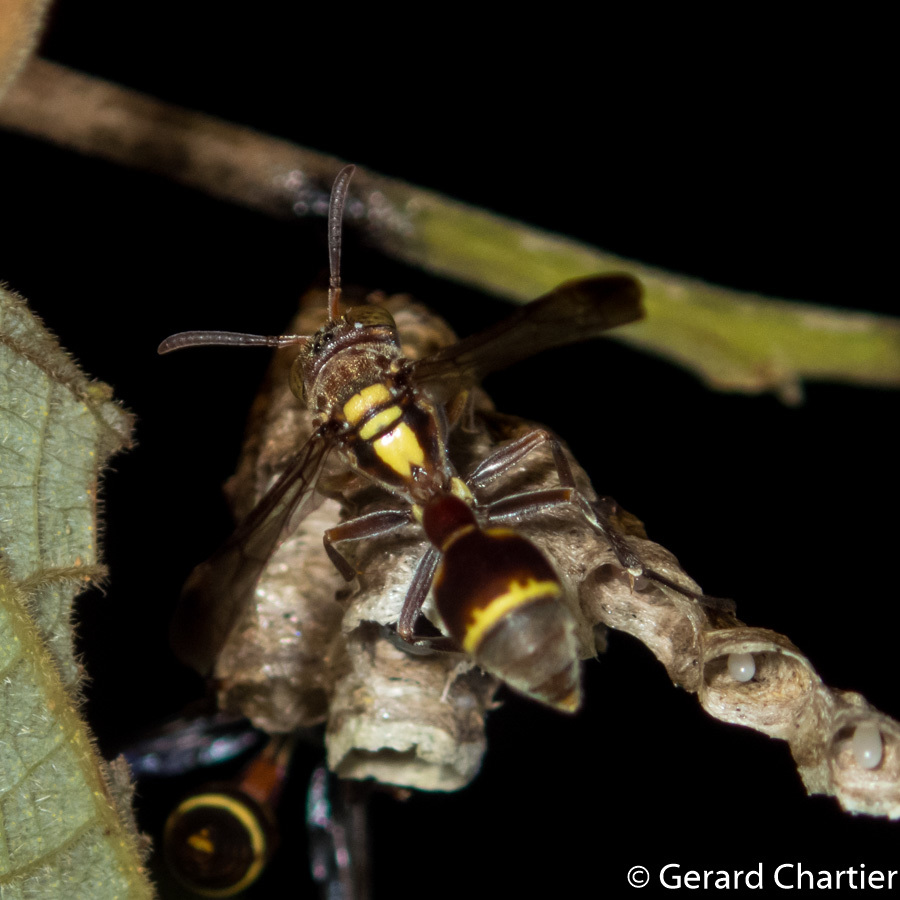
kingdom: Animalia
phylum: Arthropoda
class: Insecta
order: Hymenoptera
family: Vespidae
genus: Ropalidia
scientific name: Ropalidia stigma
